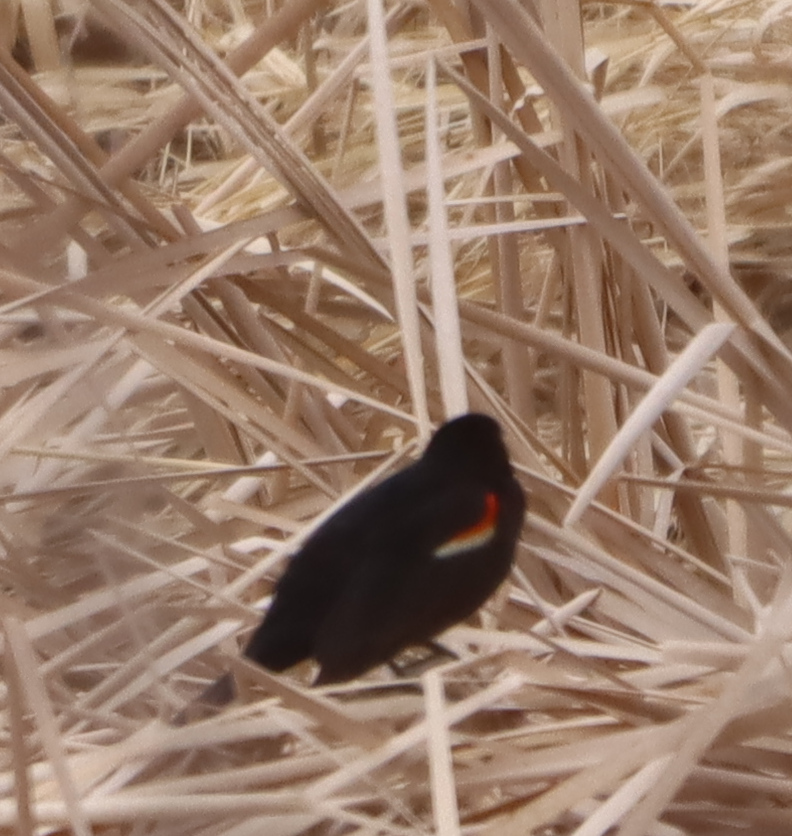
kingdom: Animalia
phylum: Chordata
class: Aves
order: Passeriformes
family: Icteridae
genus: Agelaius
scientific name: Agelaius phoeniceus
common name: Red-winged blackbird
